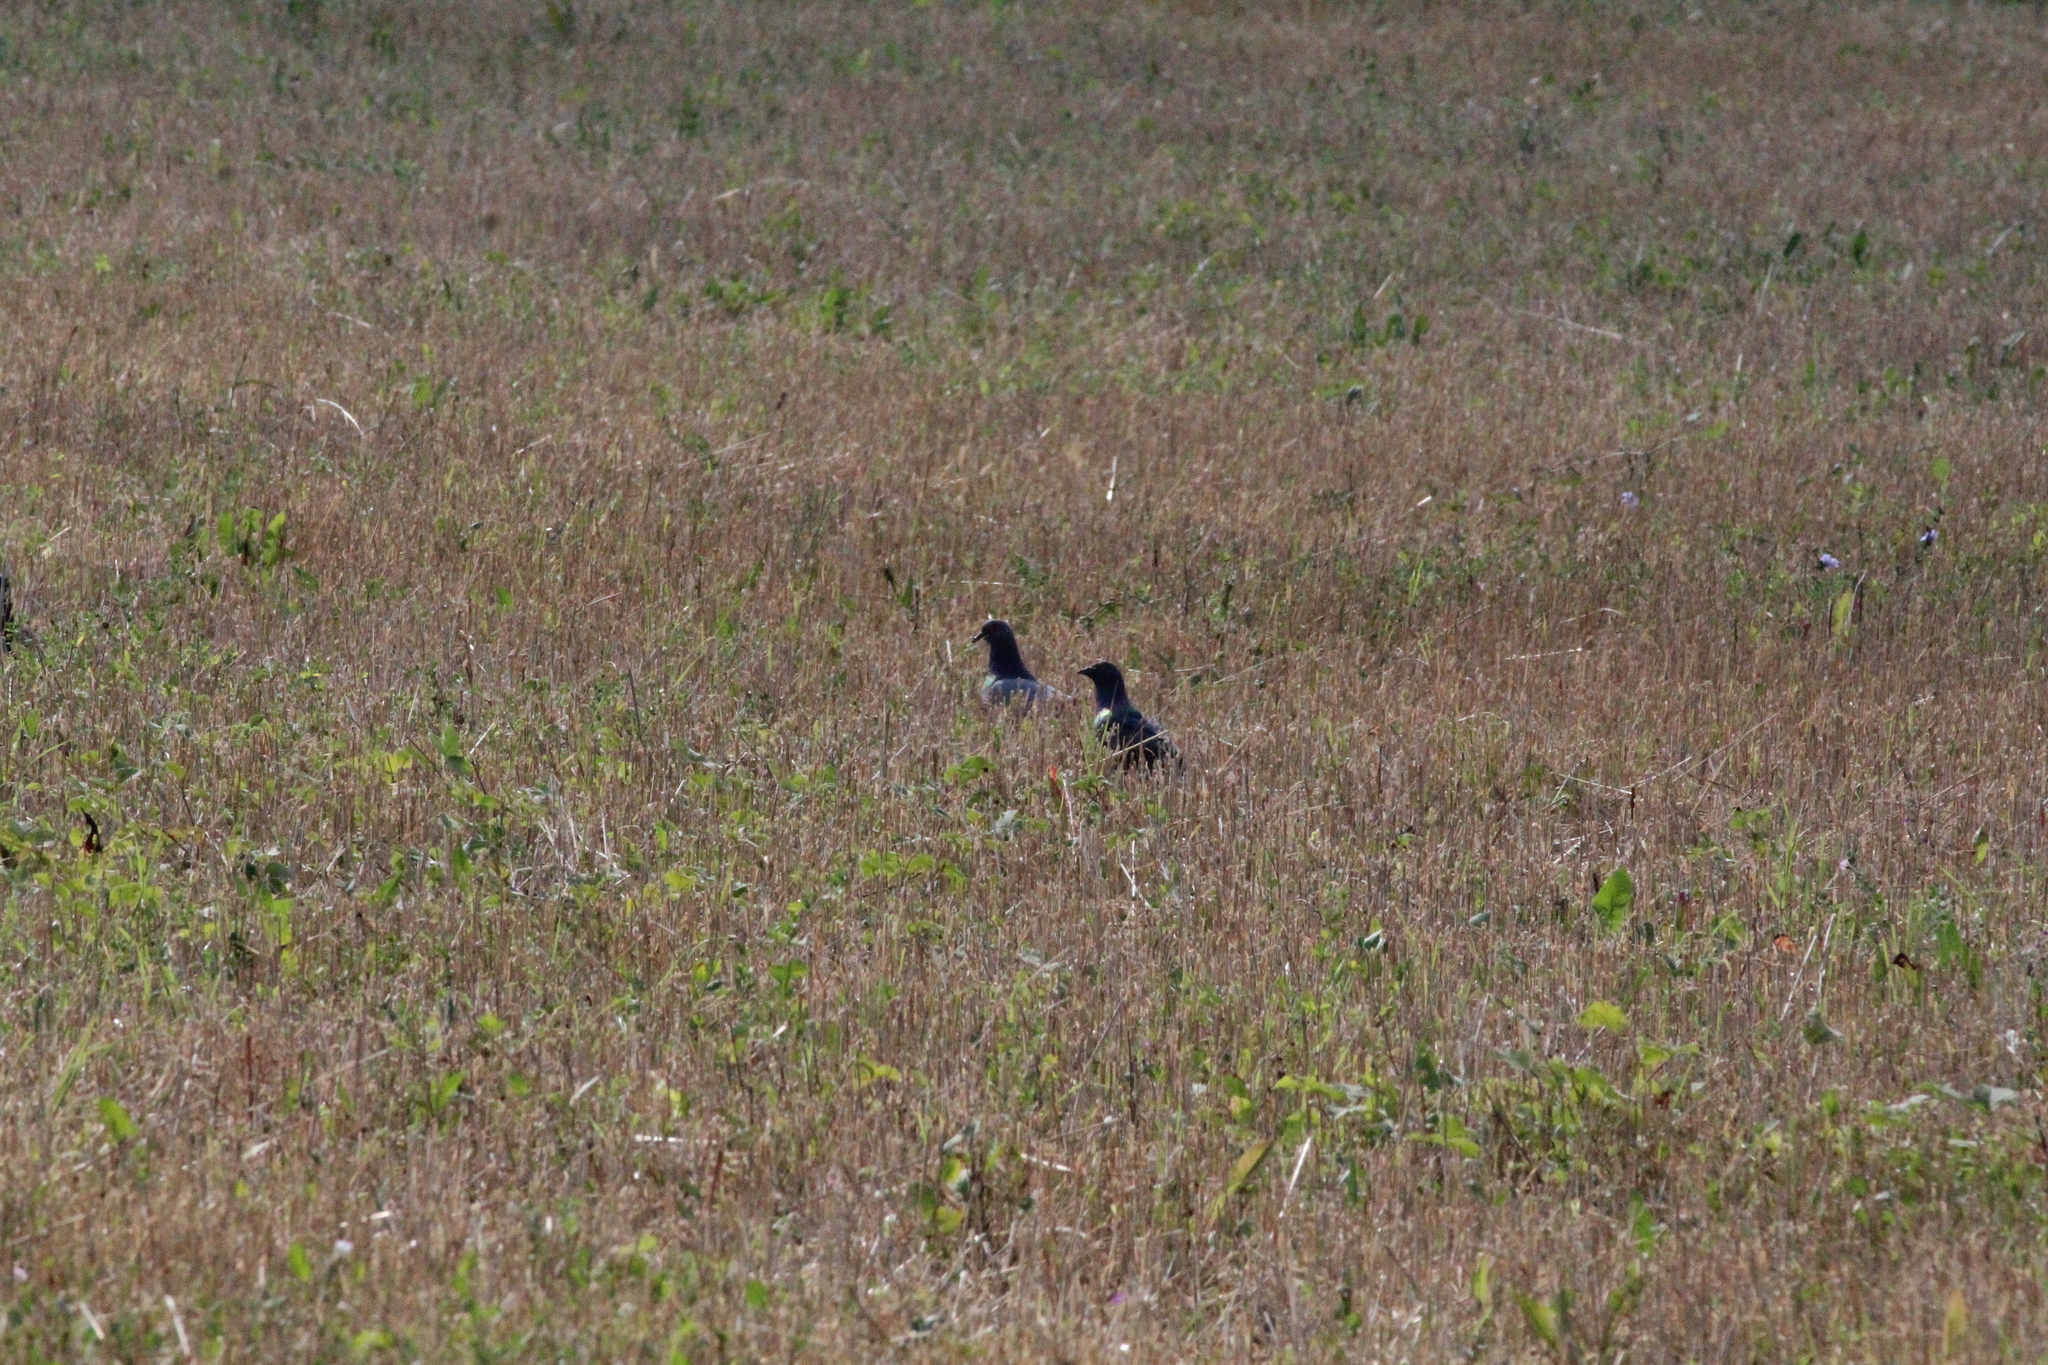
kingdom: Animalia
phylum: Chordata
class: Aves
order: Columbiformes
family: Columbidae
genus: Columba
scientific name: Columba livia
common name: Rock pigeon
